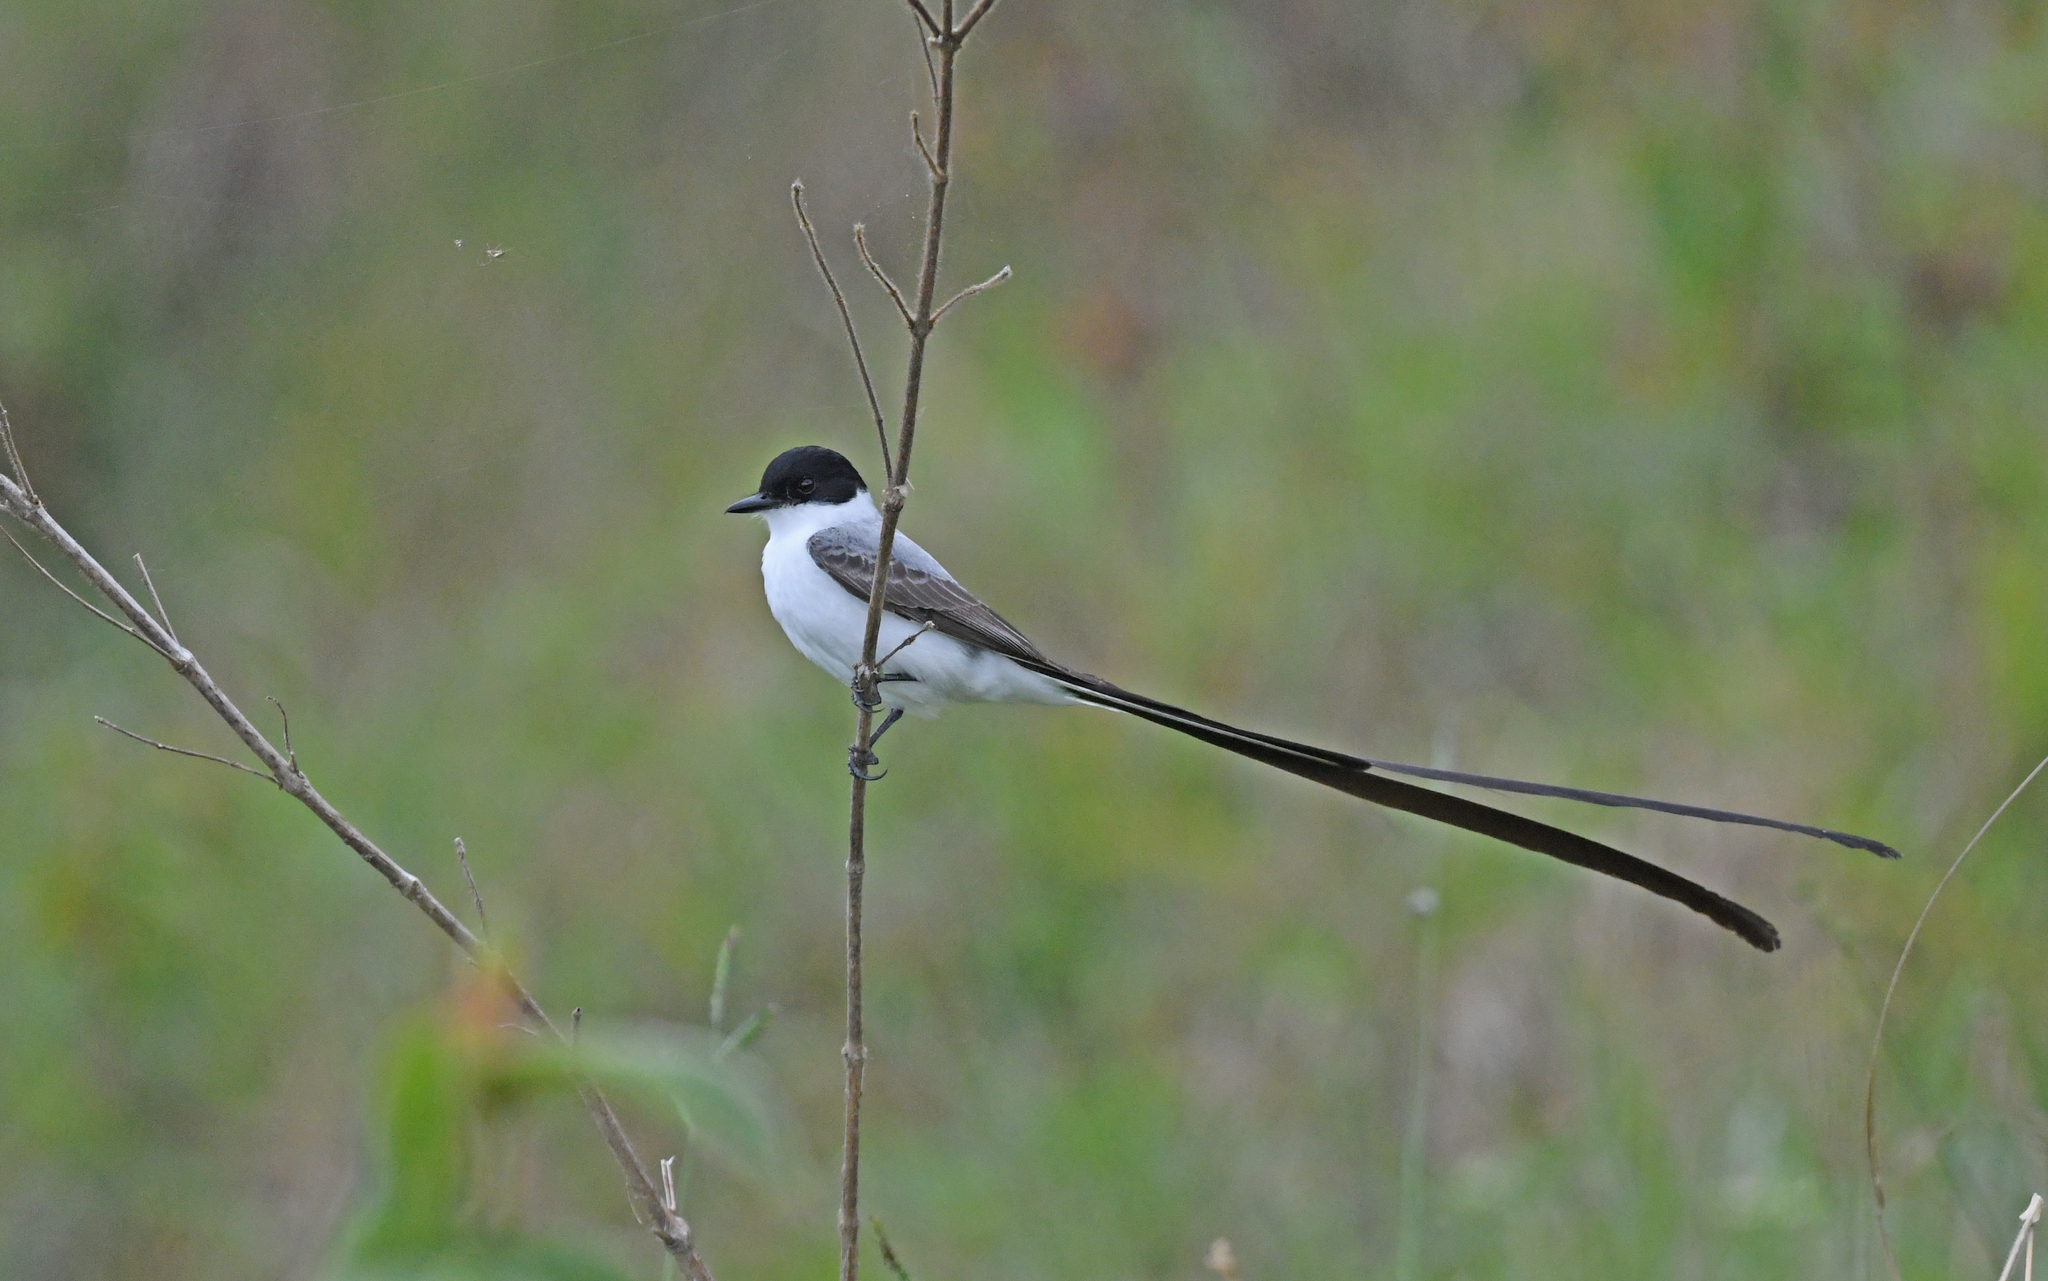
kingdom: Animalia
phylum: Chordata
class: Aves
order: Passeriformes
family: Tyrannidae
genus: Tyrannus
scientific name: Tyrannus savana
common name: Fork-tailed flycatcher
